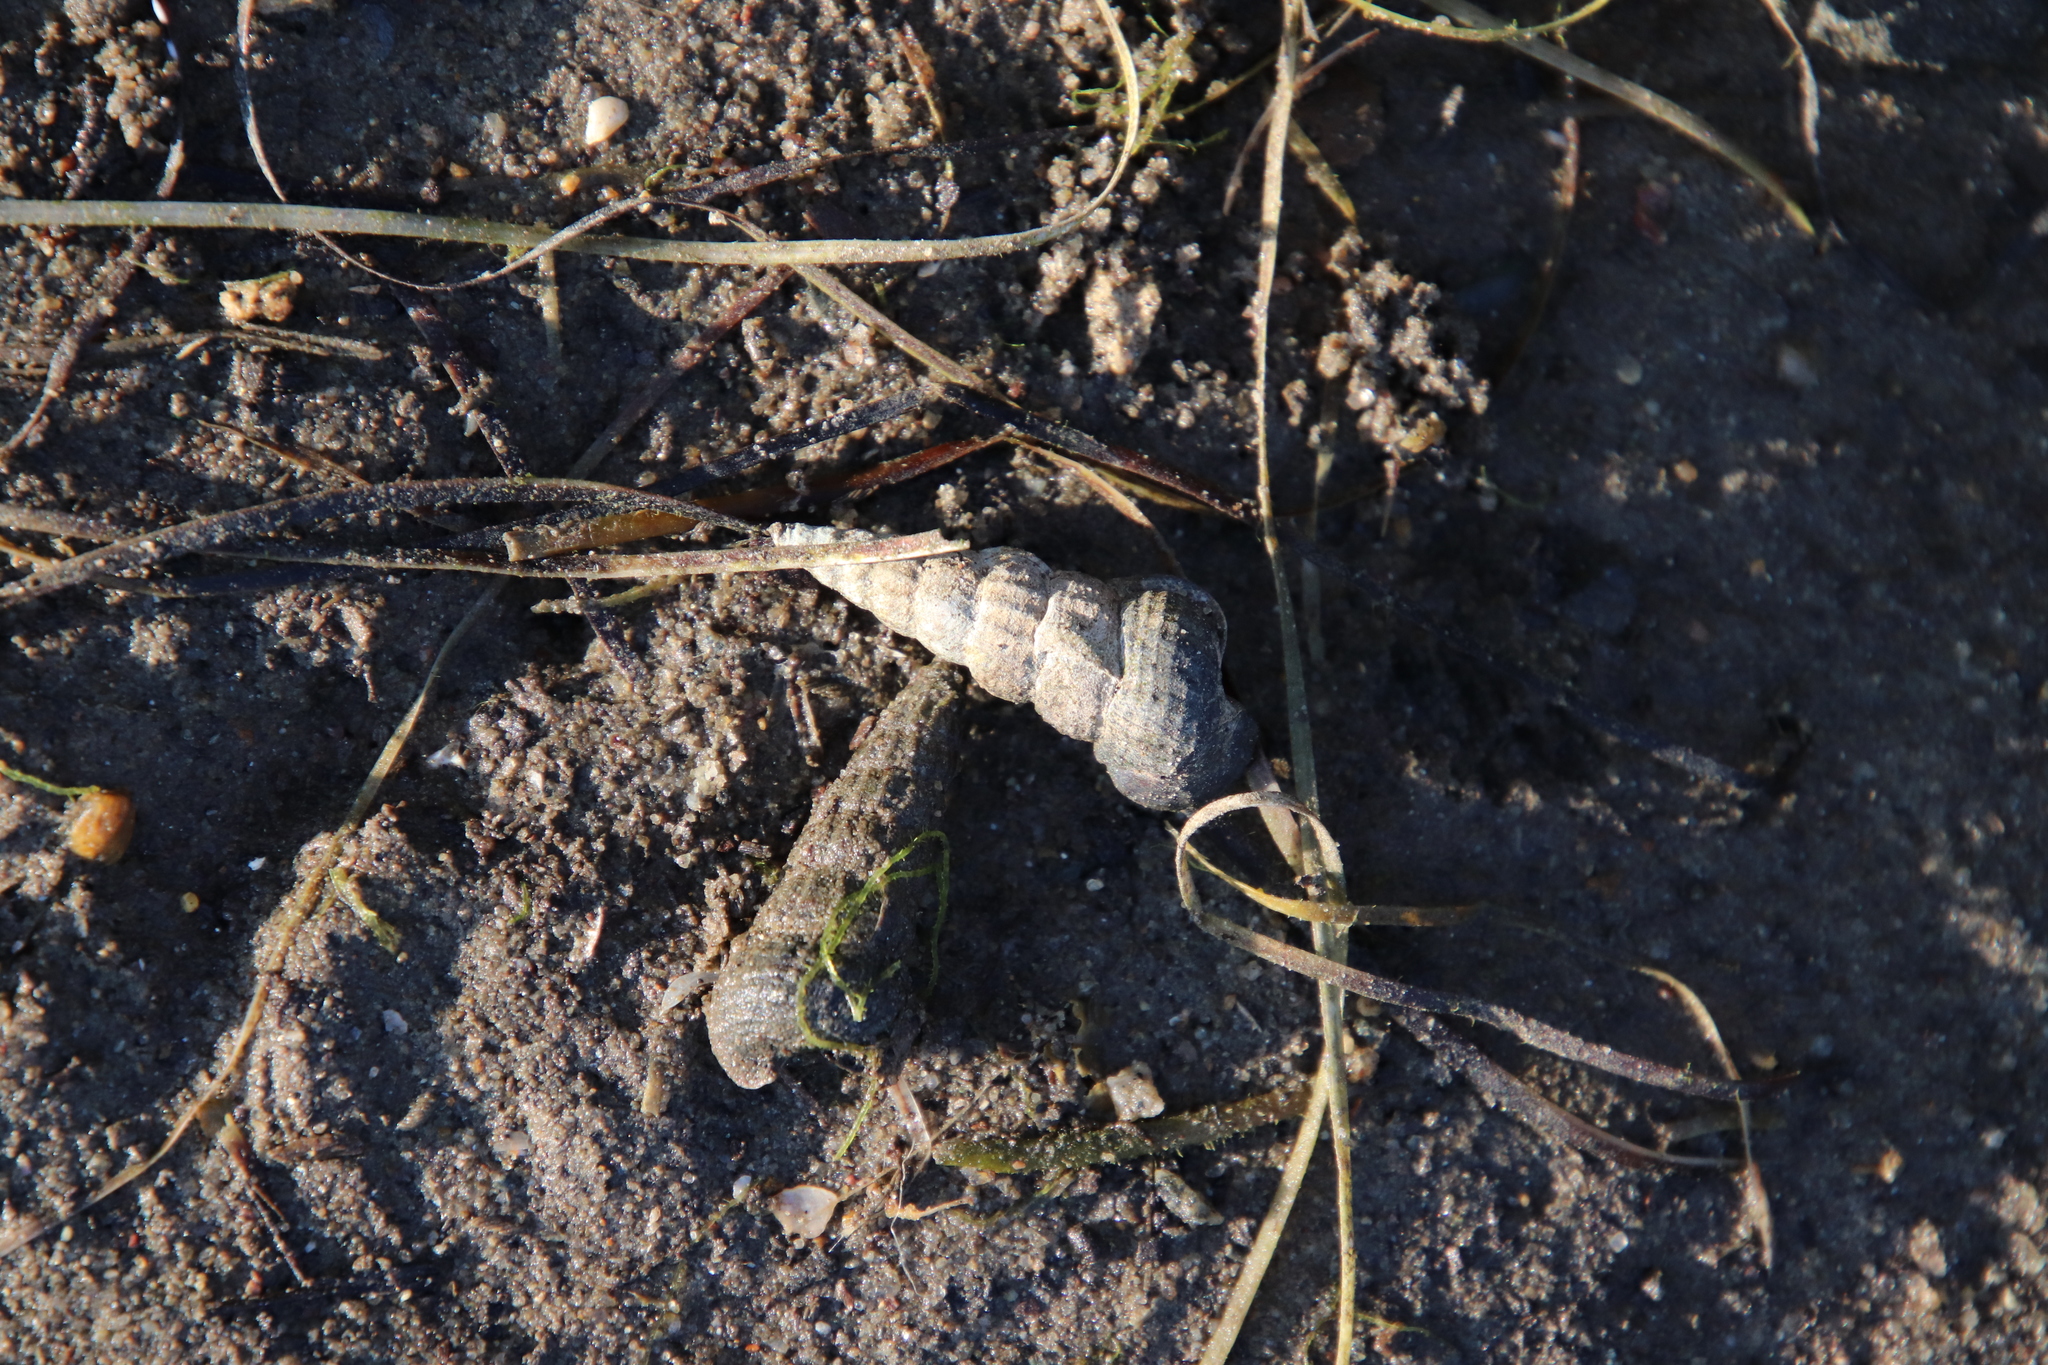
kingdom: Animalia
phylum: Mollusca
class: Gastropoda
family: Potamididae
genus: Cerithideopsis
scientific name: Cerithideopsis californica
